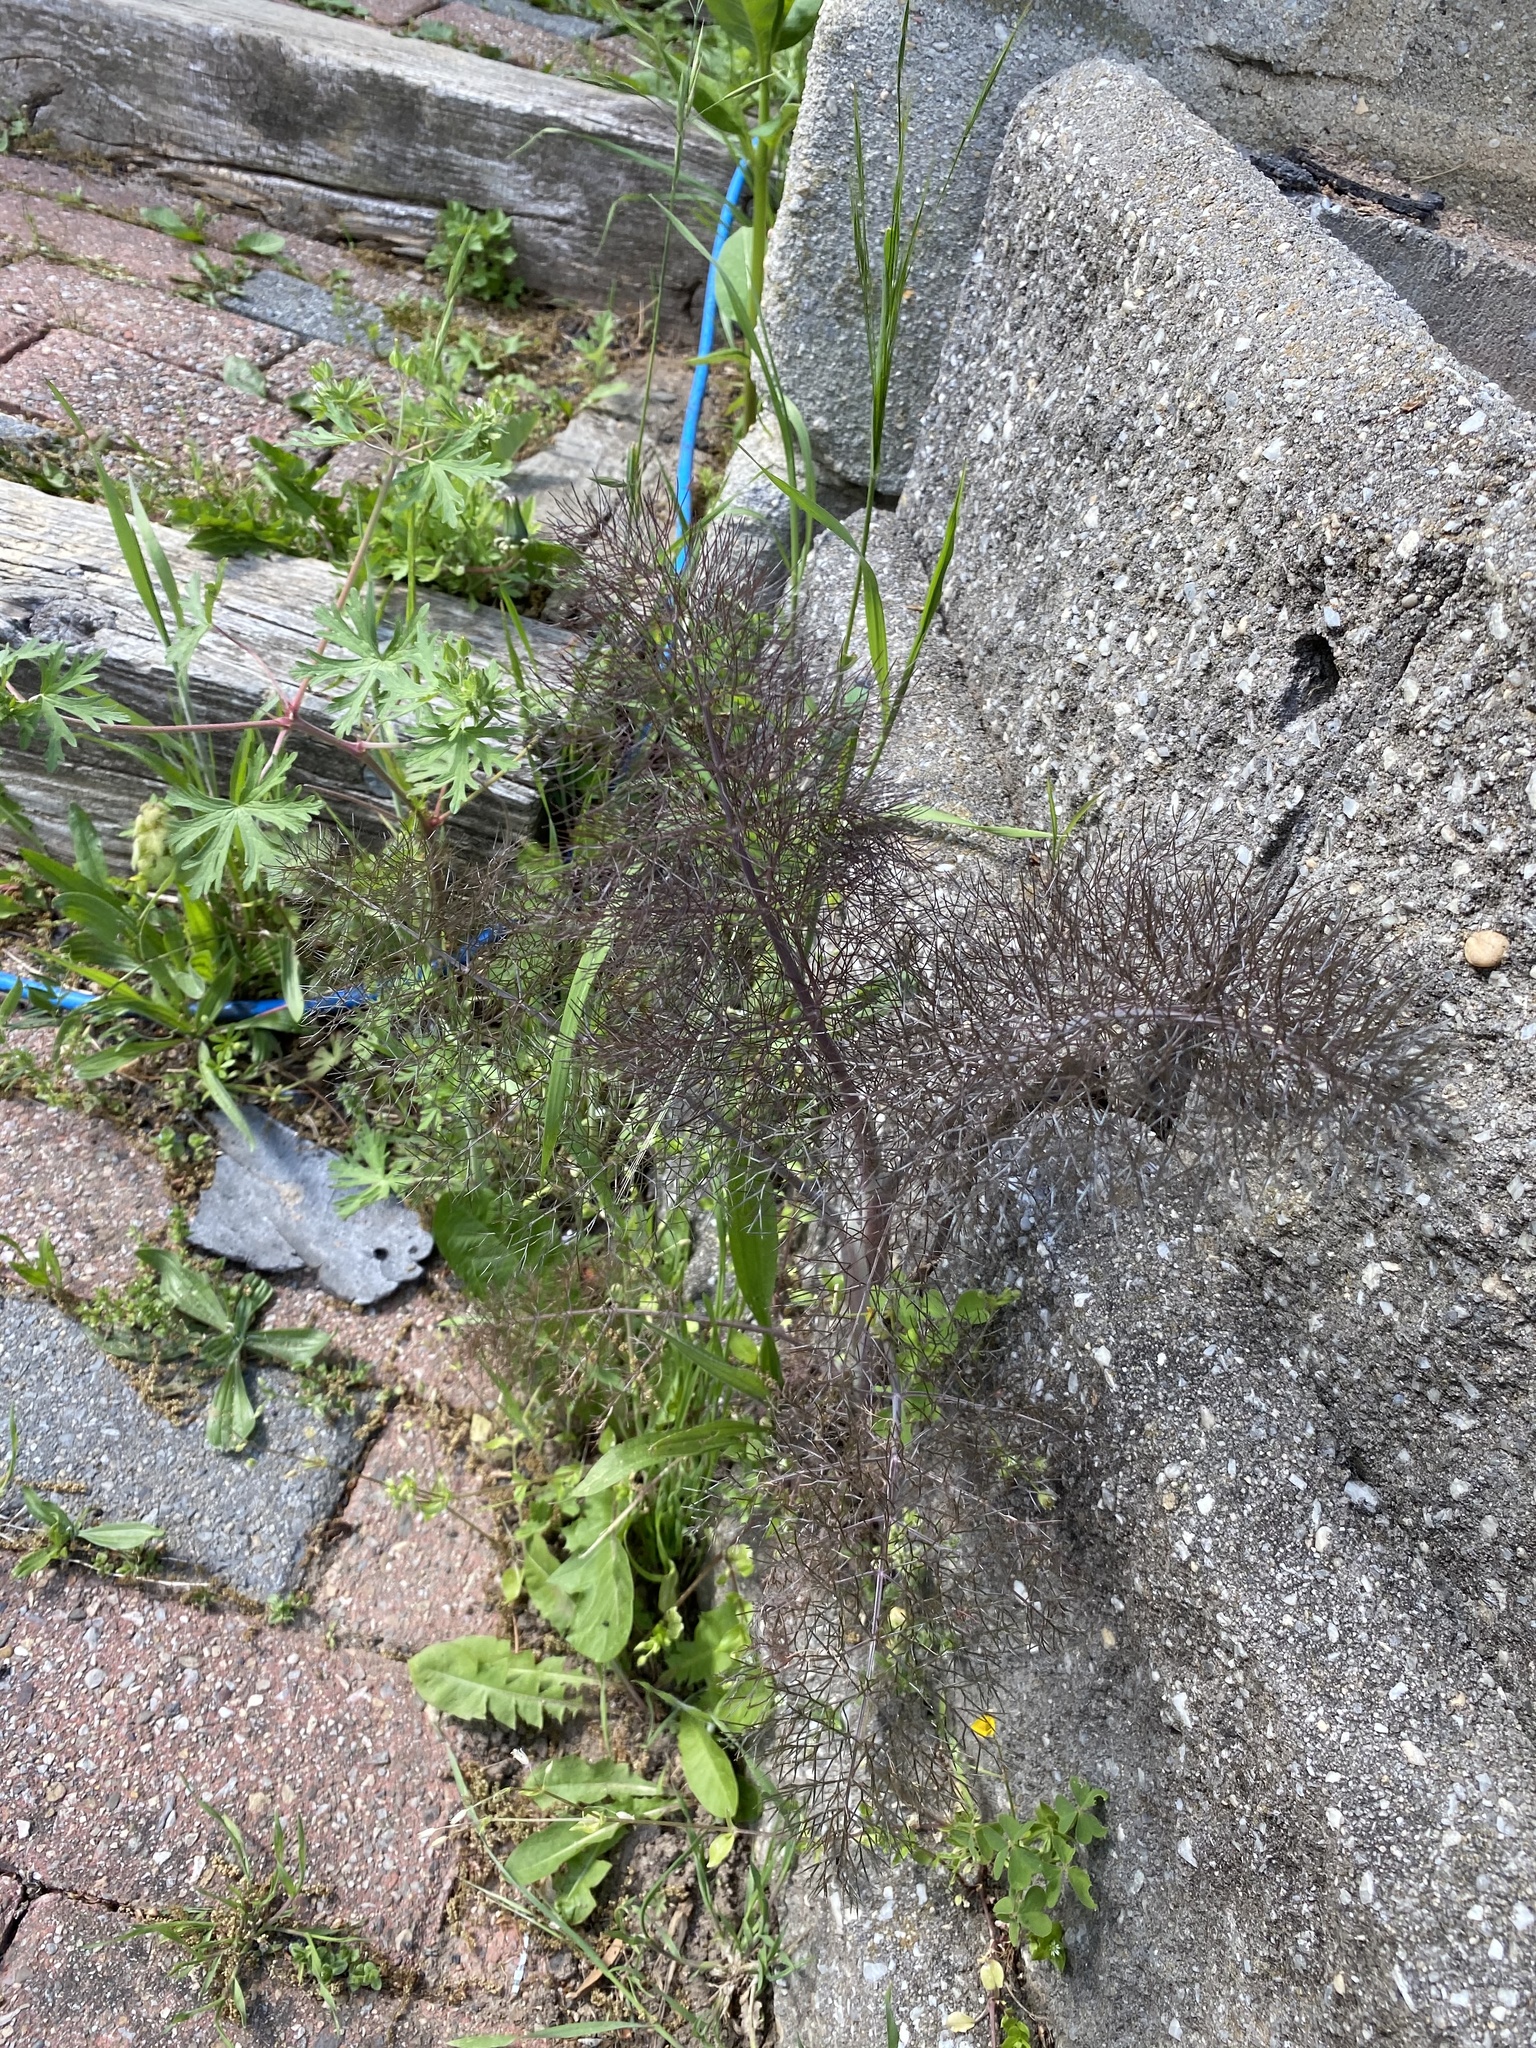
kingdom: Plantae
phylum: Tracheophyta
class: Magnoliopsida
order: Apiales
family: Apiaceae
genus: Foeniculum
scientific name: Foeniculum vulgare
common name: Fennel
